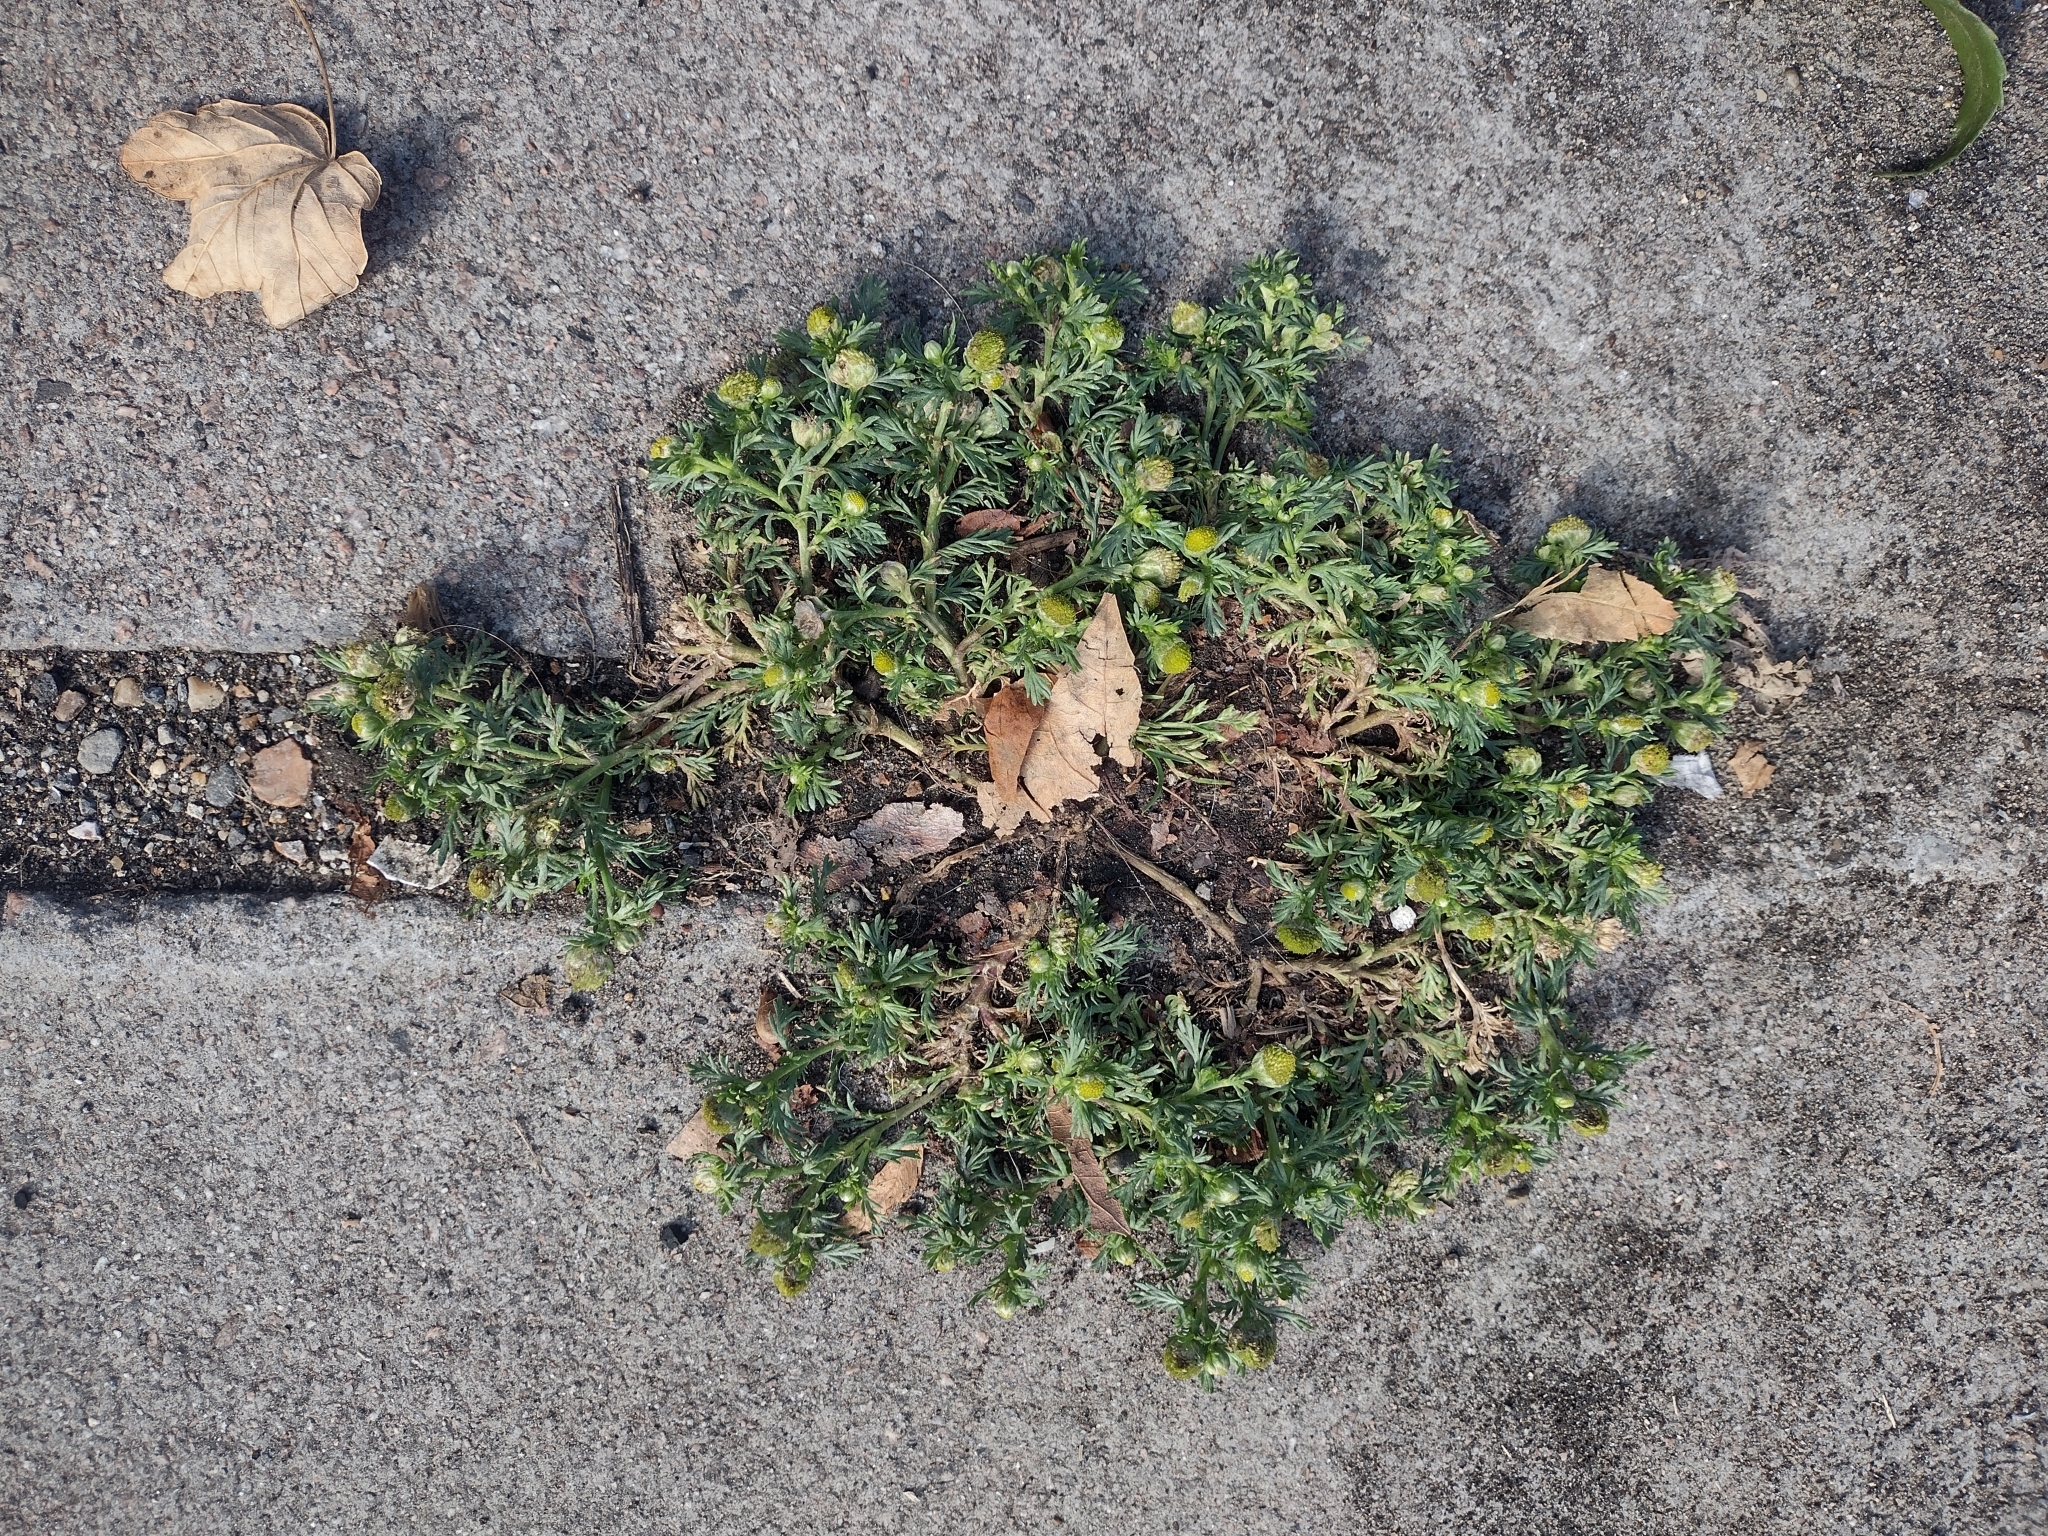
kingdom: Plantae
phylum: Tracheophyta
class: Magnoliopsida
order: Asterales
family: Asteraceae
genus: Matricaria
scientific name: Matricaria discoidea
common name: Disc mayweed
